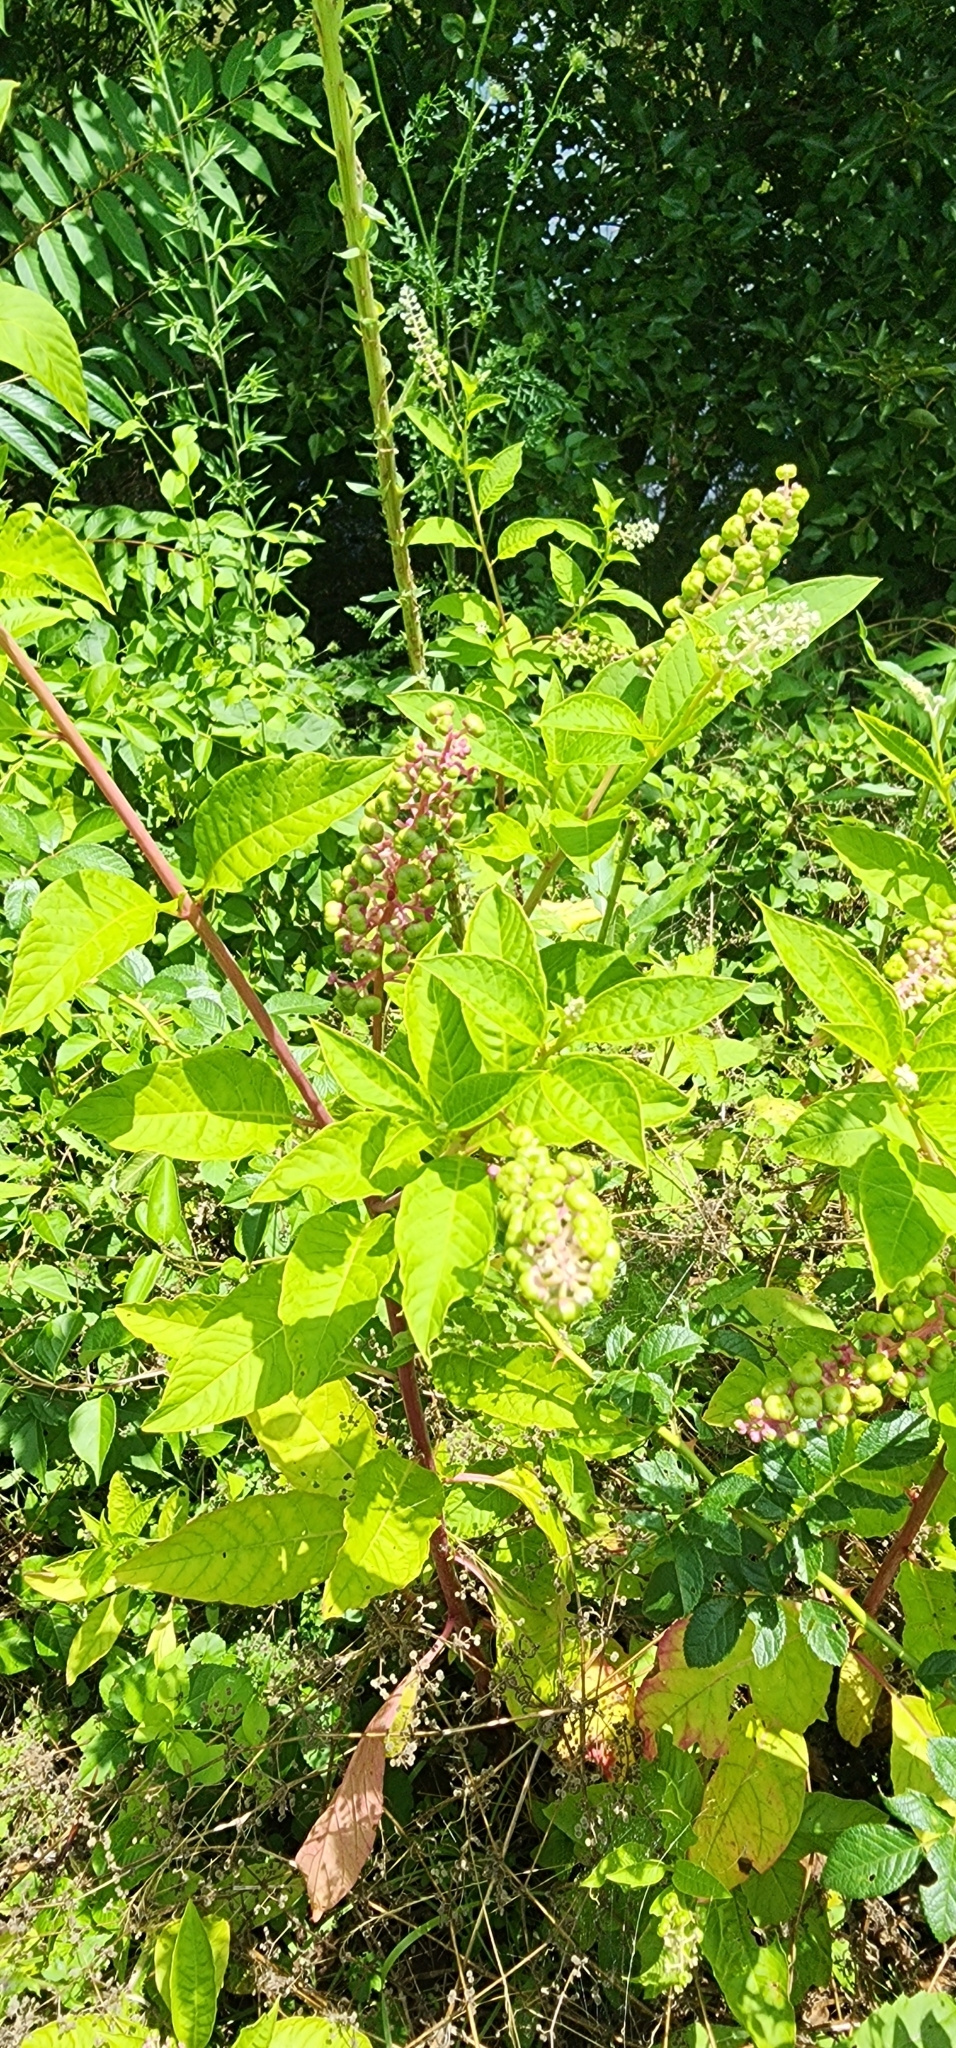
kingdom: Plantae
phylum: Tracheophyta
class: Magnoliopsida
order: Caryophyllales
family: Phytolaccaceae
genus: Phytolacca
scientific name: Phytolacca americana
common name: American pokeweed
